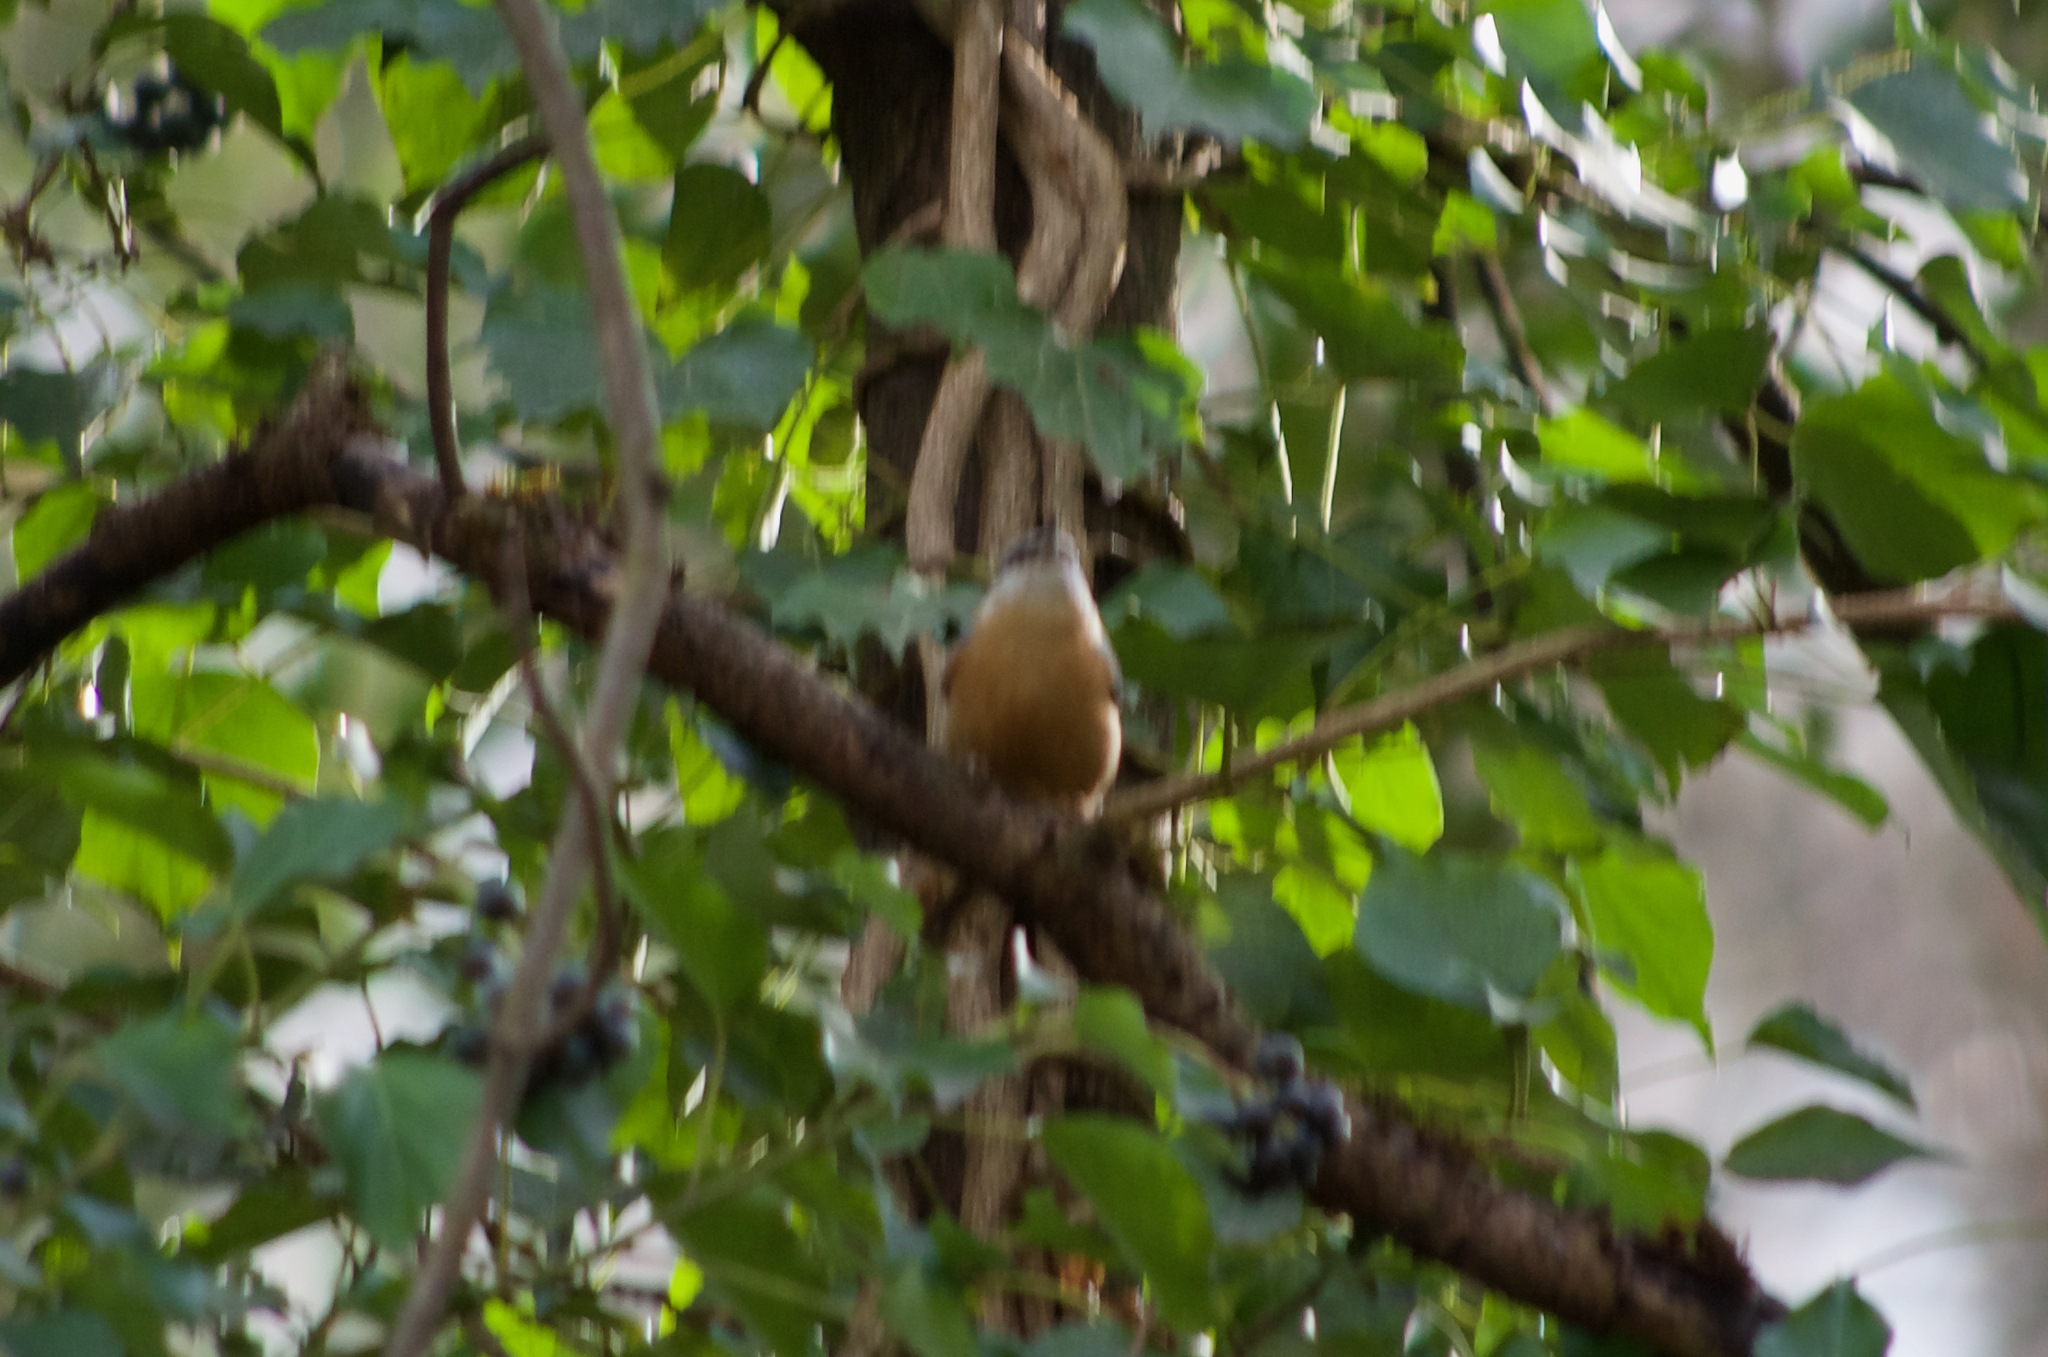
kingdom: Animalia
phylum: Chordata
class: Aves
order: Passeriformes
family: Sittidae
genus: Sitta
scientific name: Sitta europaea
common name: Eurasian nuthatch
